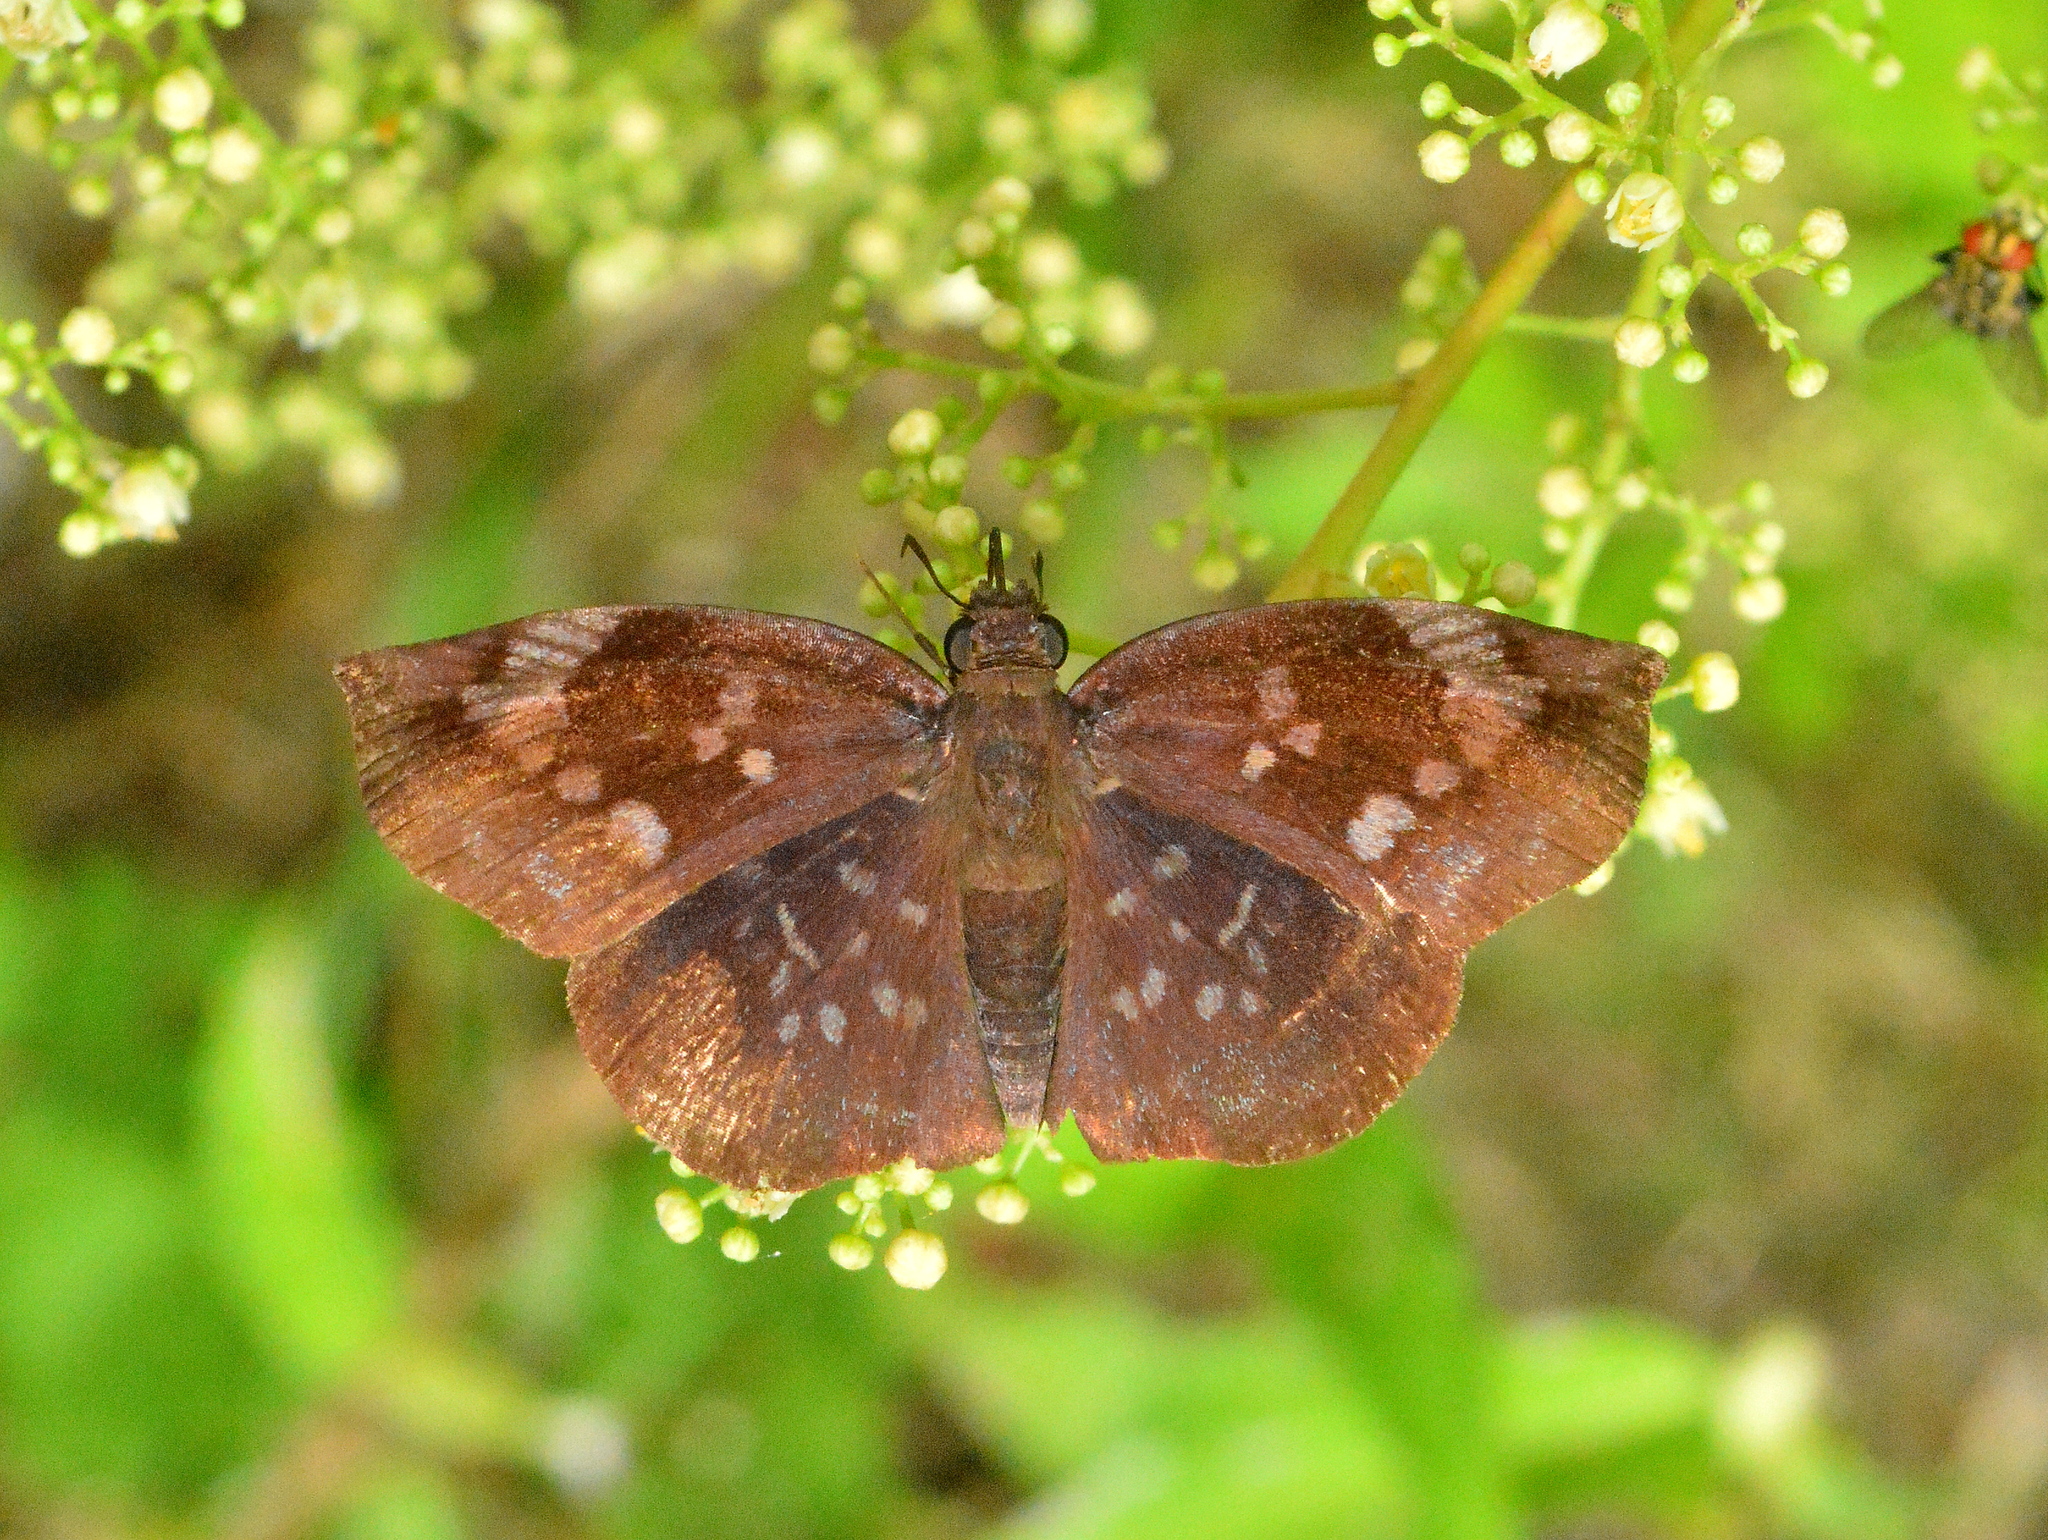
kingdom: Animalia
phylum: Arthropoda
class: Insecta
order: Lepidoptera
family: Hesperiidae
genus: Achlyodes
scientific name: Achlyodes thraso
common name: Sickle-winged skipper
